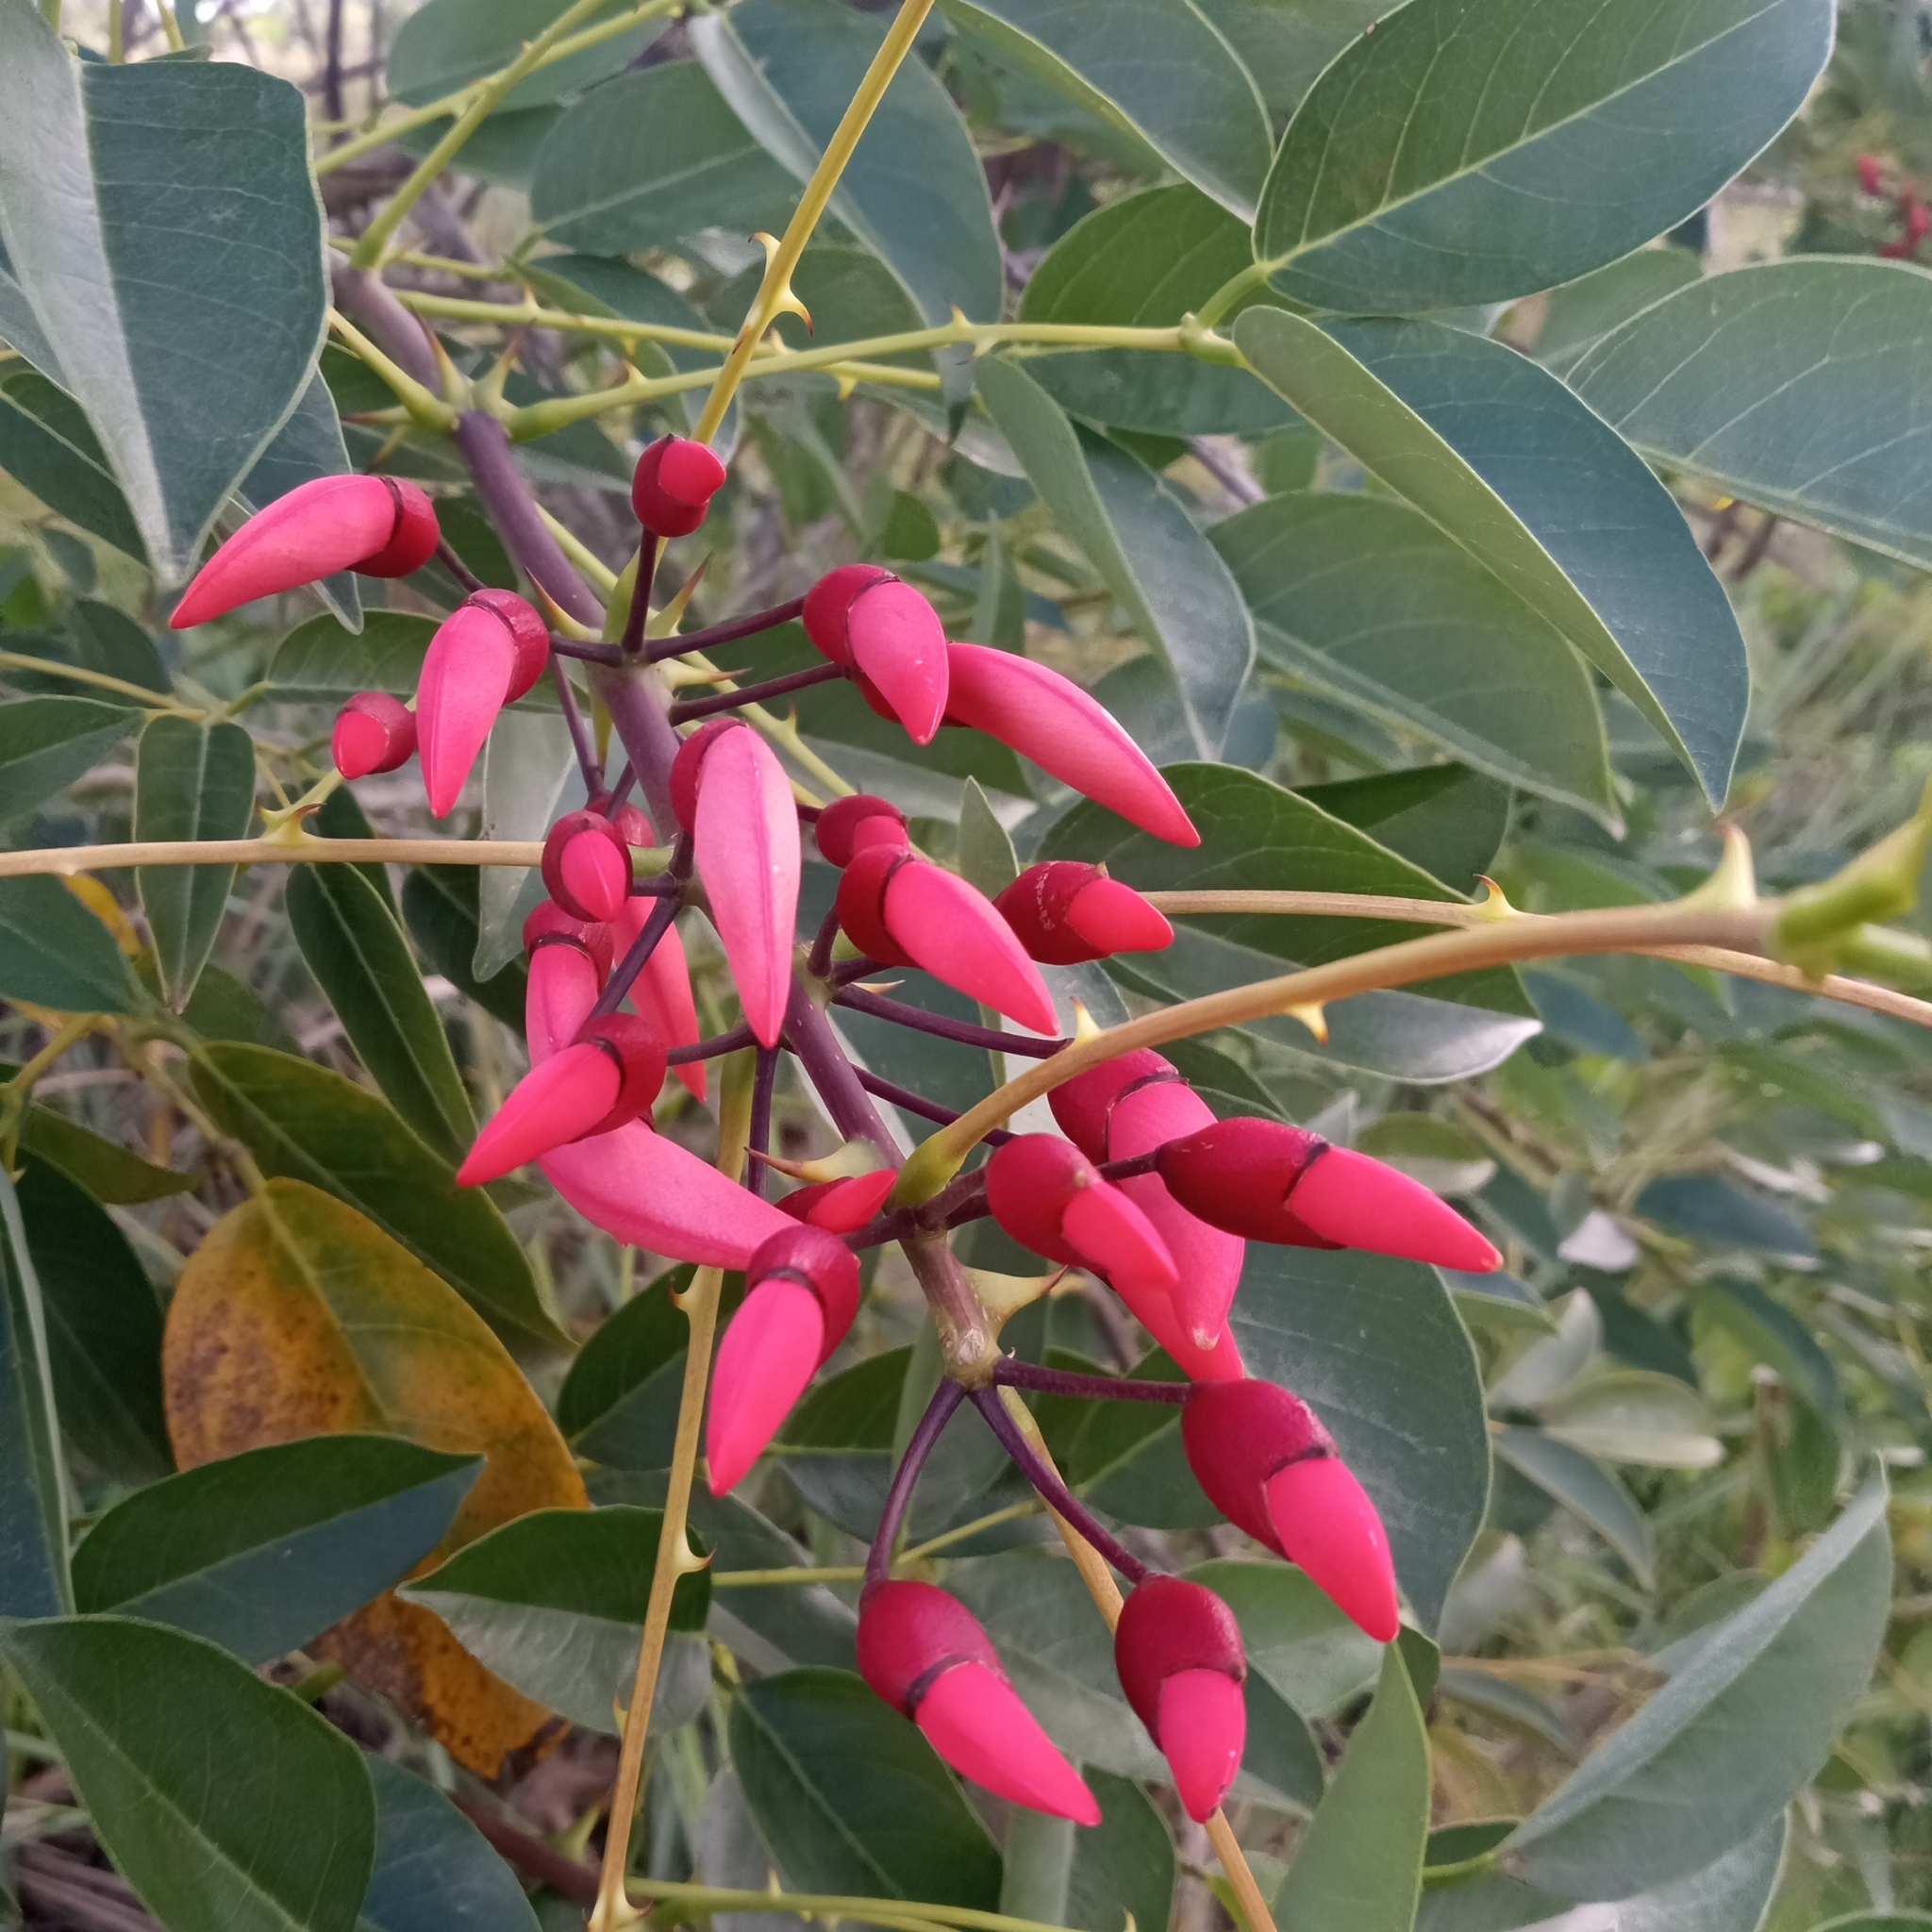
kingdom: Plantae
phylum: Tracheophyta
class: Magnoliopsida
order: Fabales
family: Fabaceae
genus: Erythrina
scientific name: Erythrina crista-galli
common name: Cockspur coral tree
